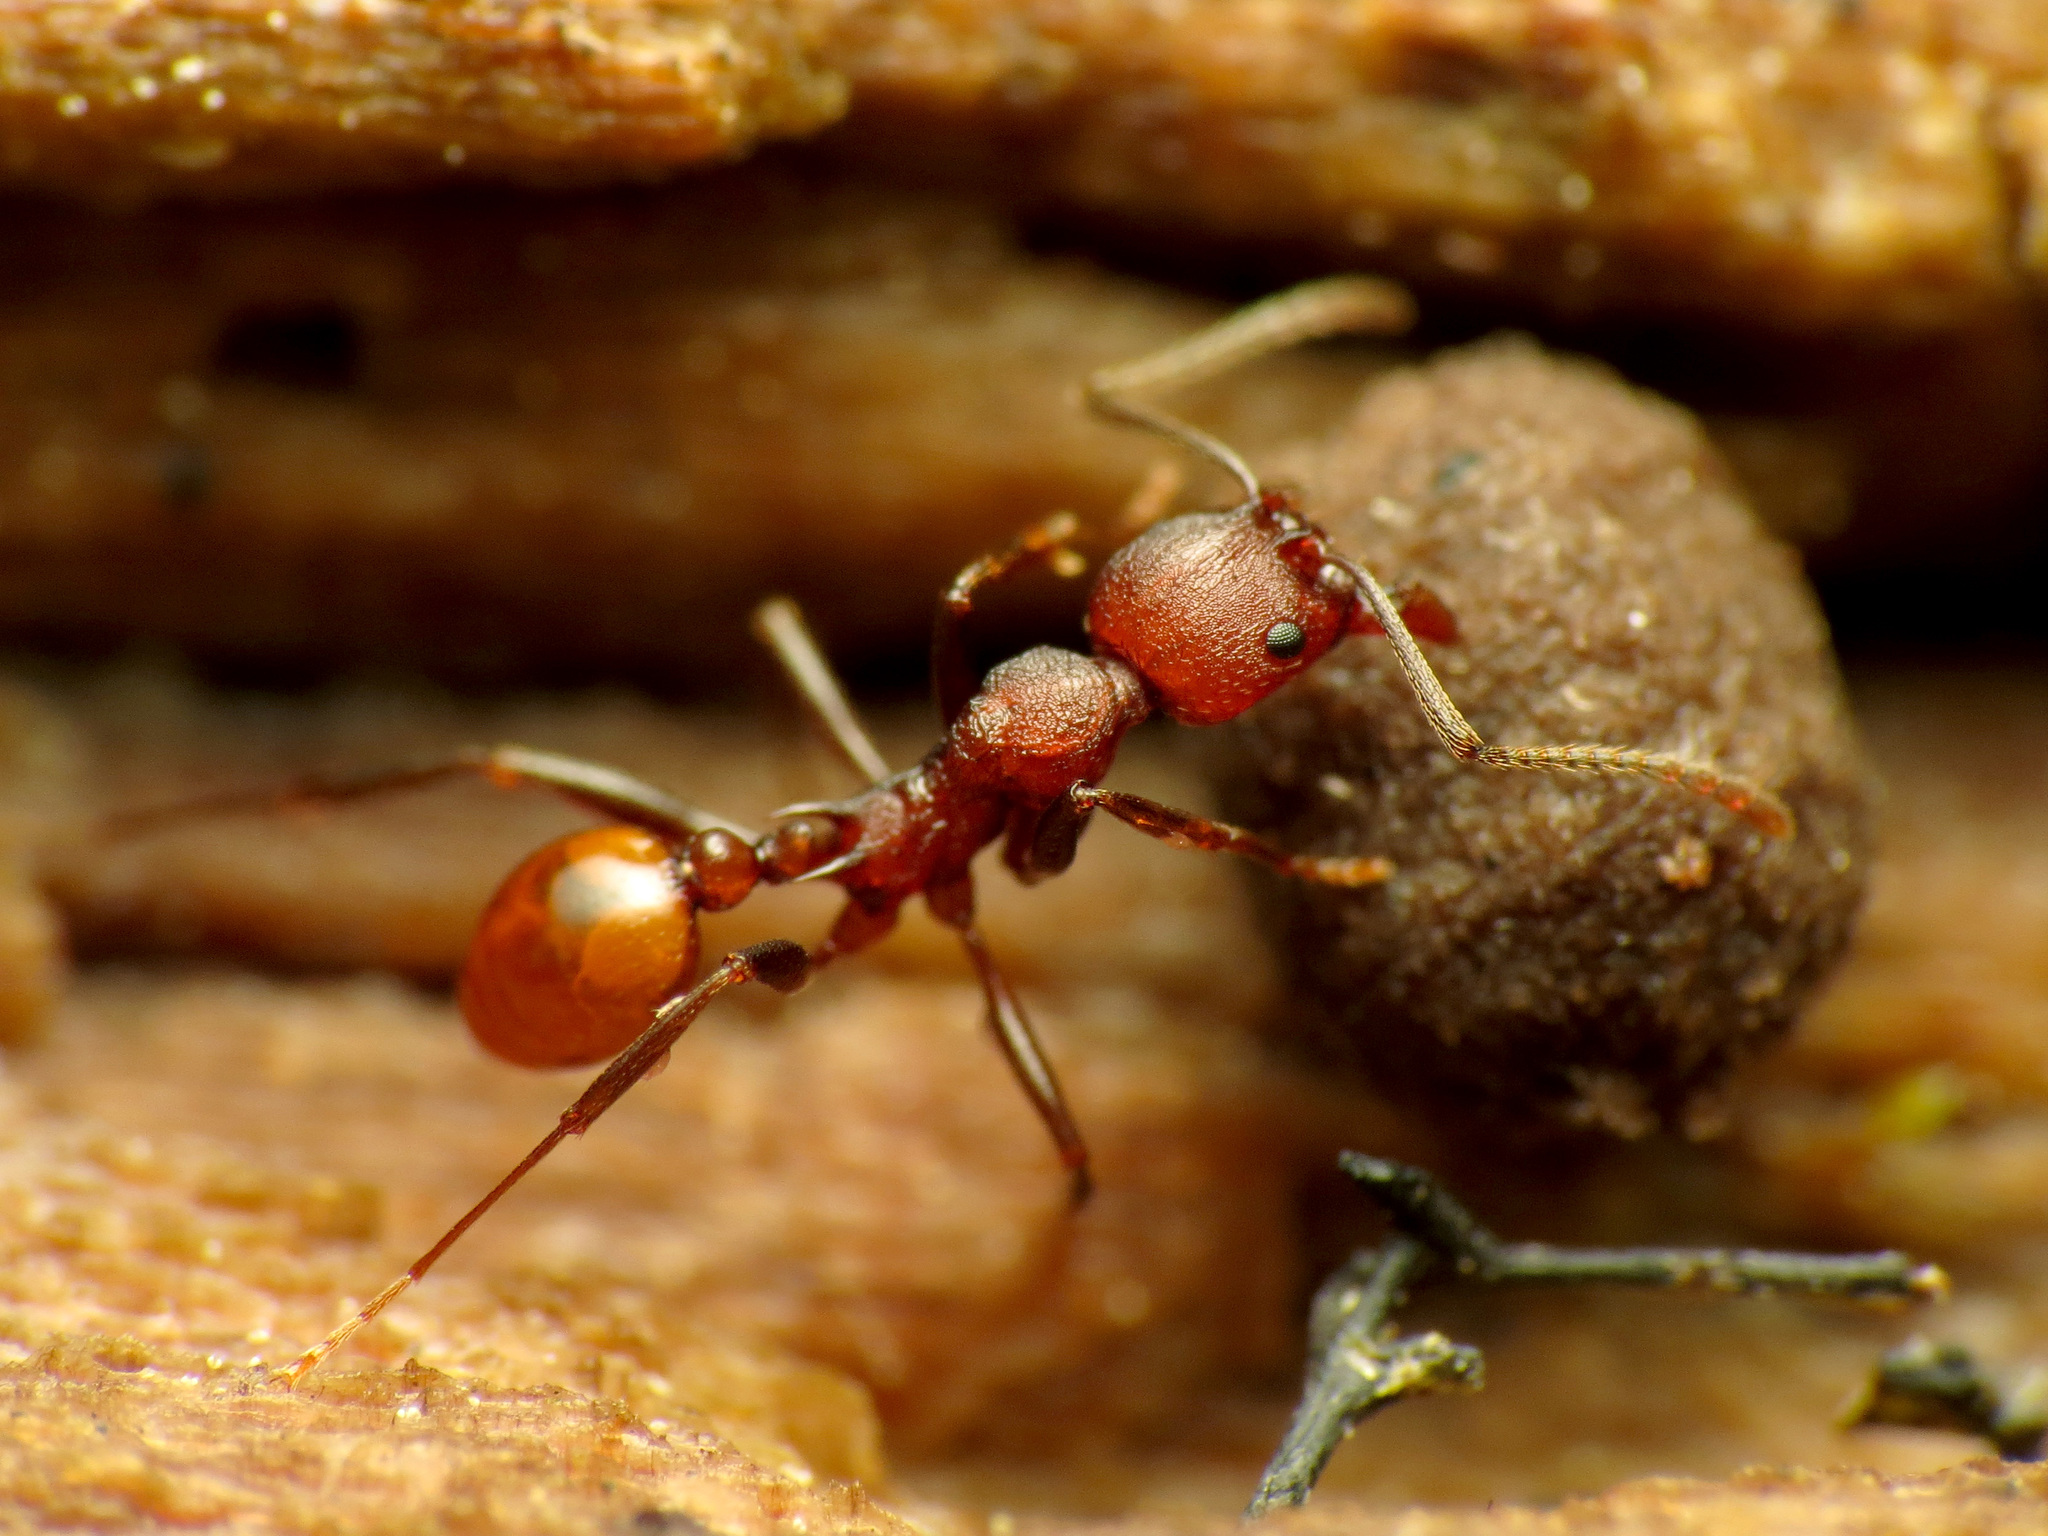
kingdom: Animalia
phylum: Arthropoda
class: Insecta
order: Hymenoptera
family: Formicidae
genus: Aphaenogaster
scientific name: Aphaenogaster tennesseensis
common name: Tennessee thread-waisted ant
